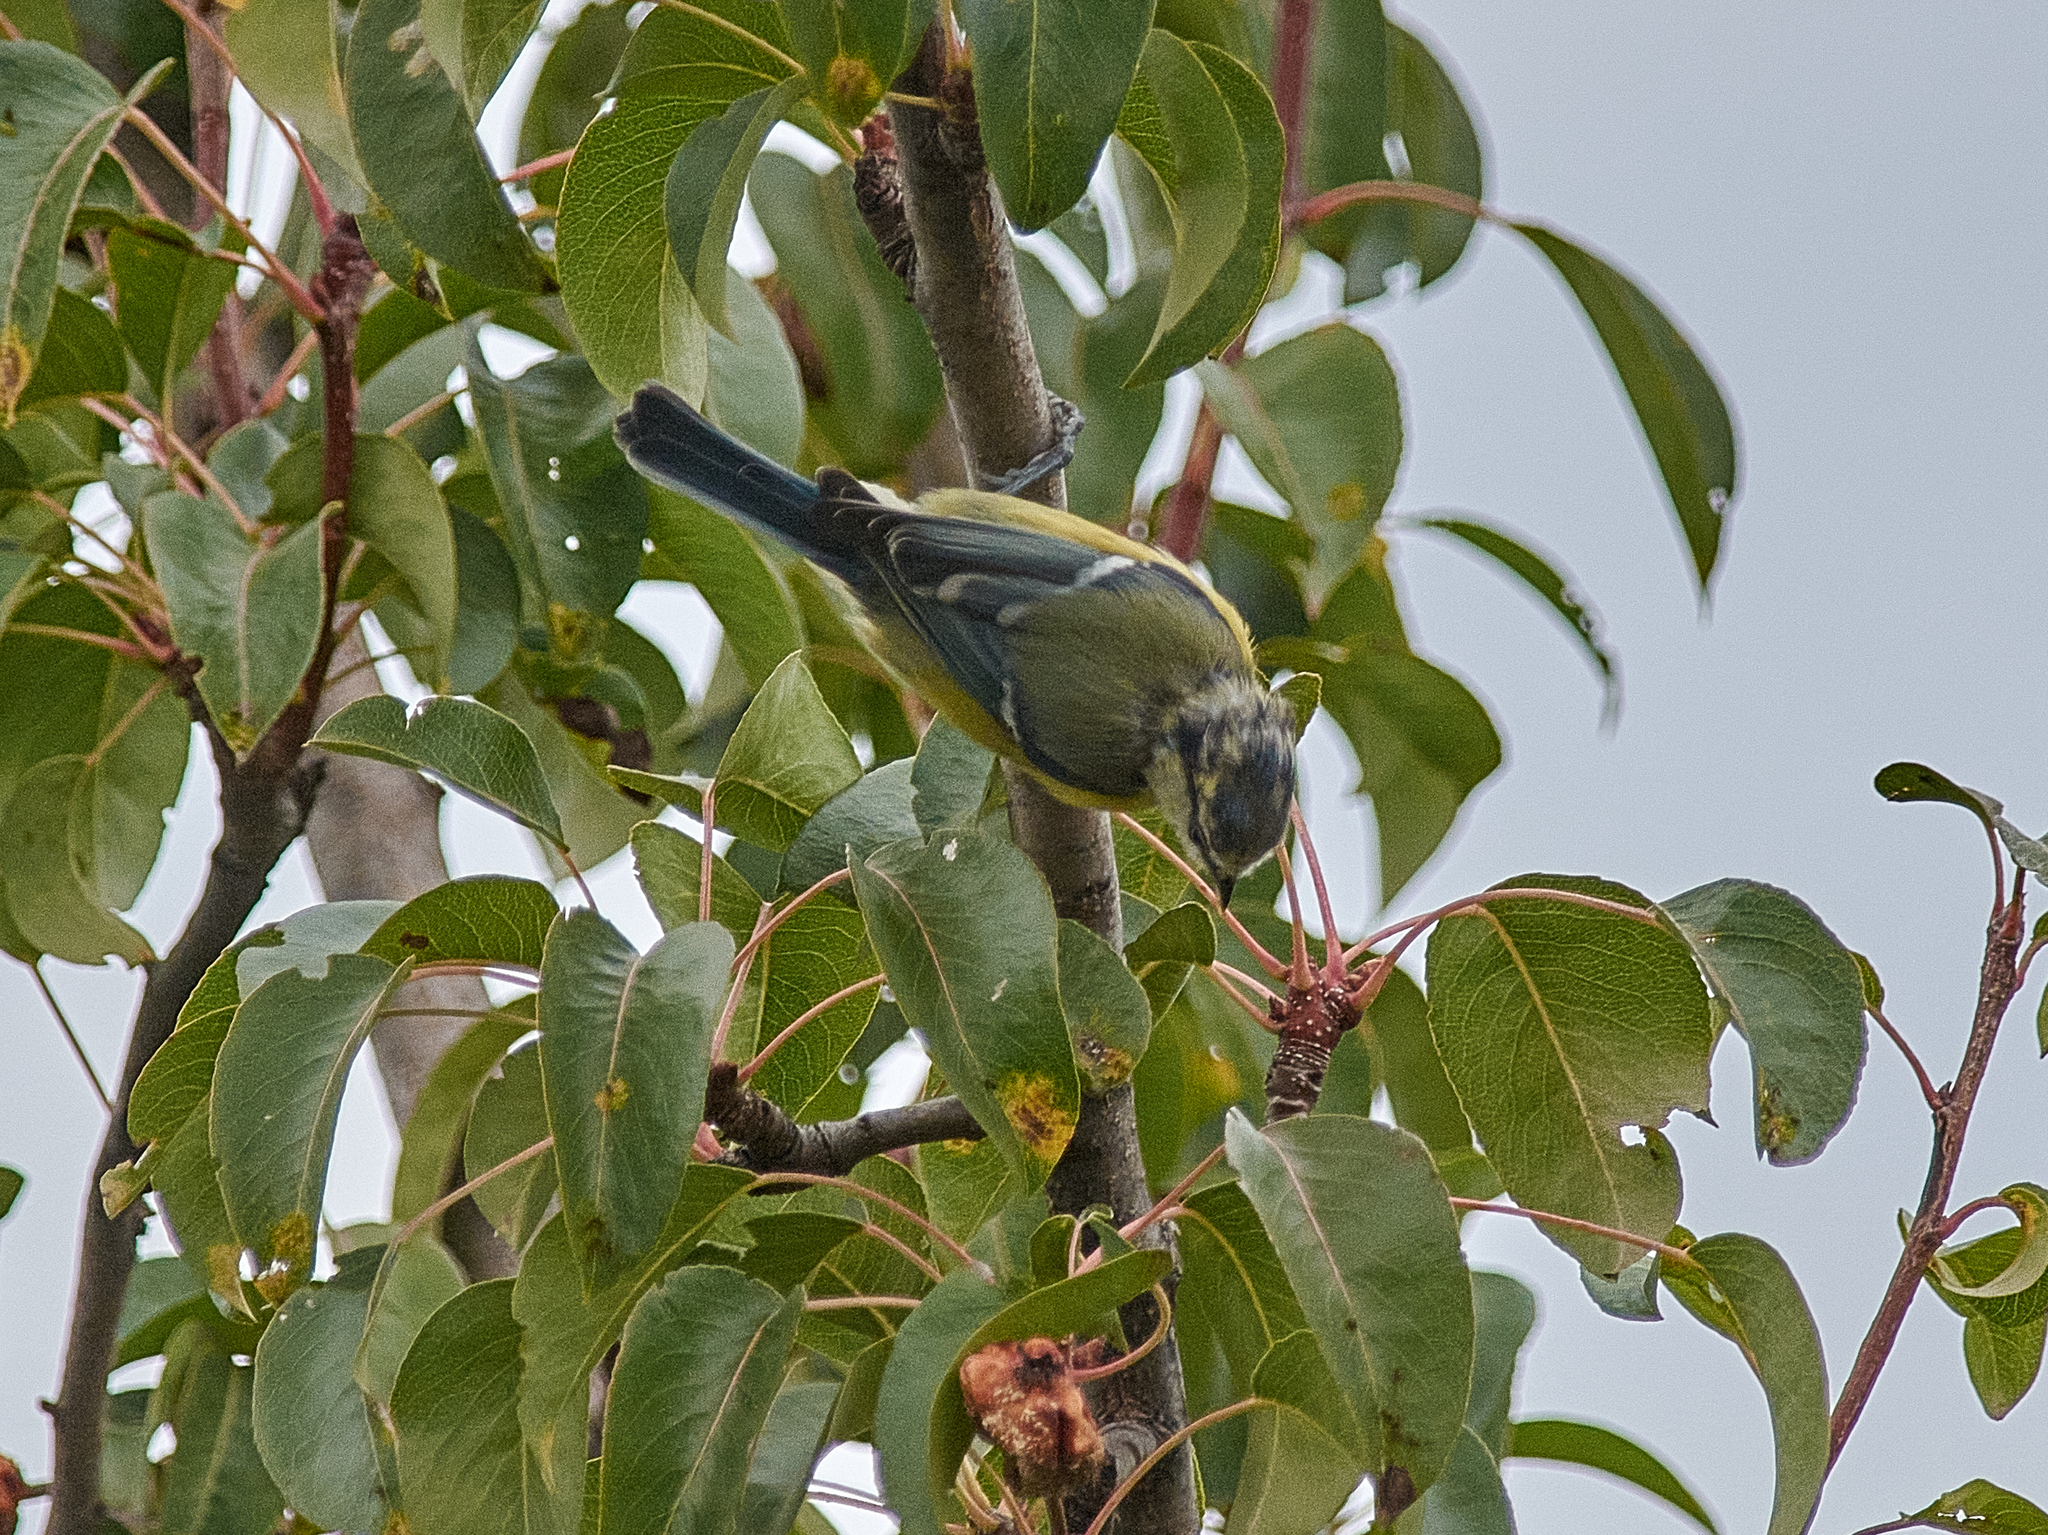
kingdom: Animalia
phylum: Chordata
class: Aves
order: Passeriformes
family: Paridae
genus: Cyanistes
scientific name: Cyanistes caeruleus
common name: Eurasian blue tit
